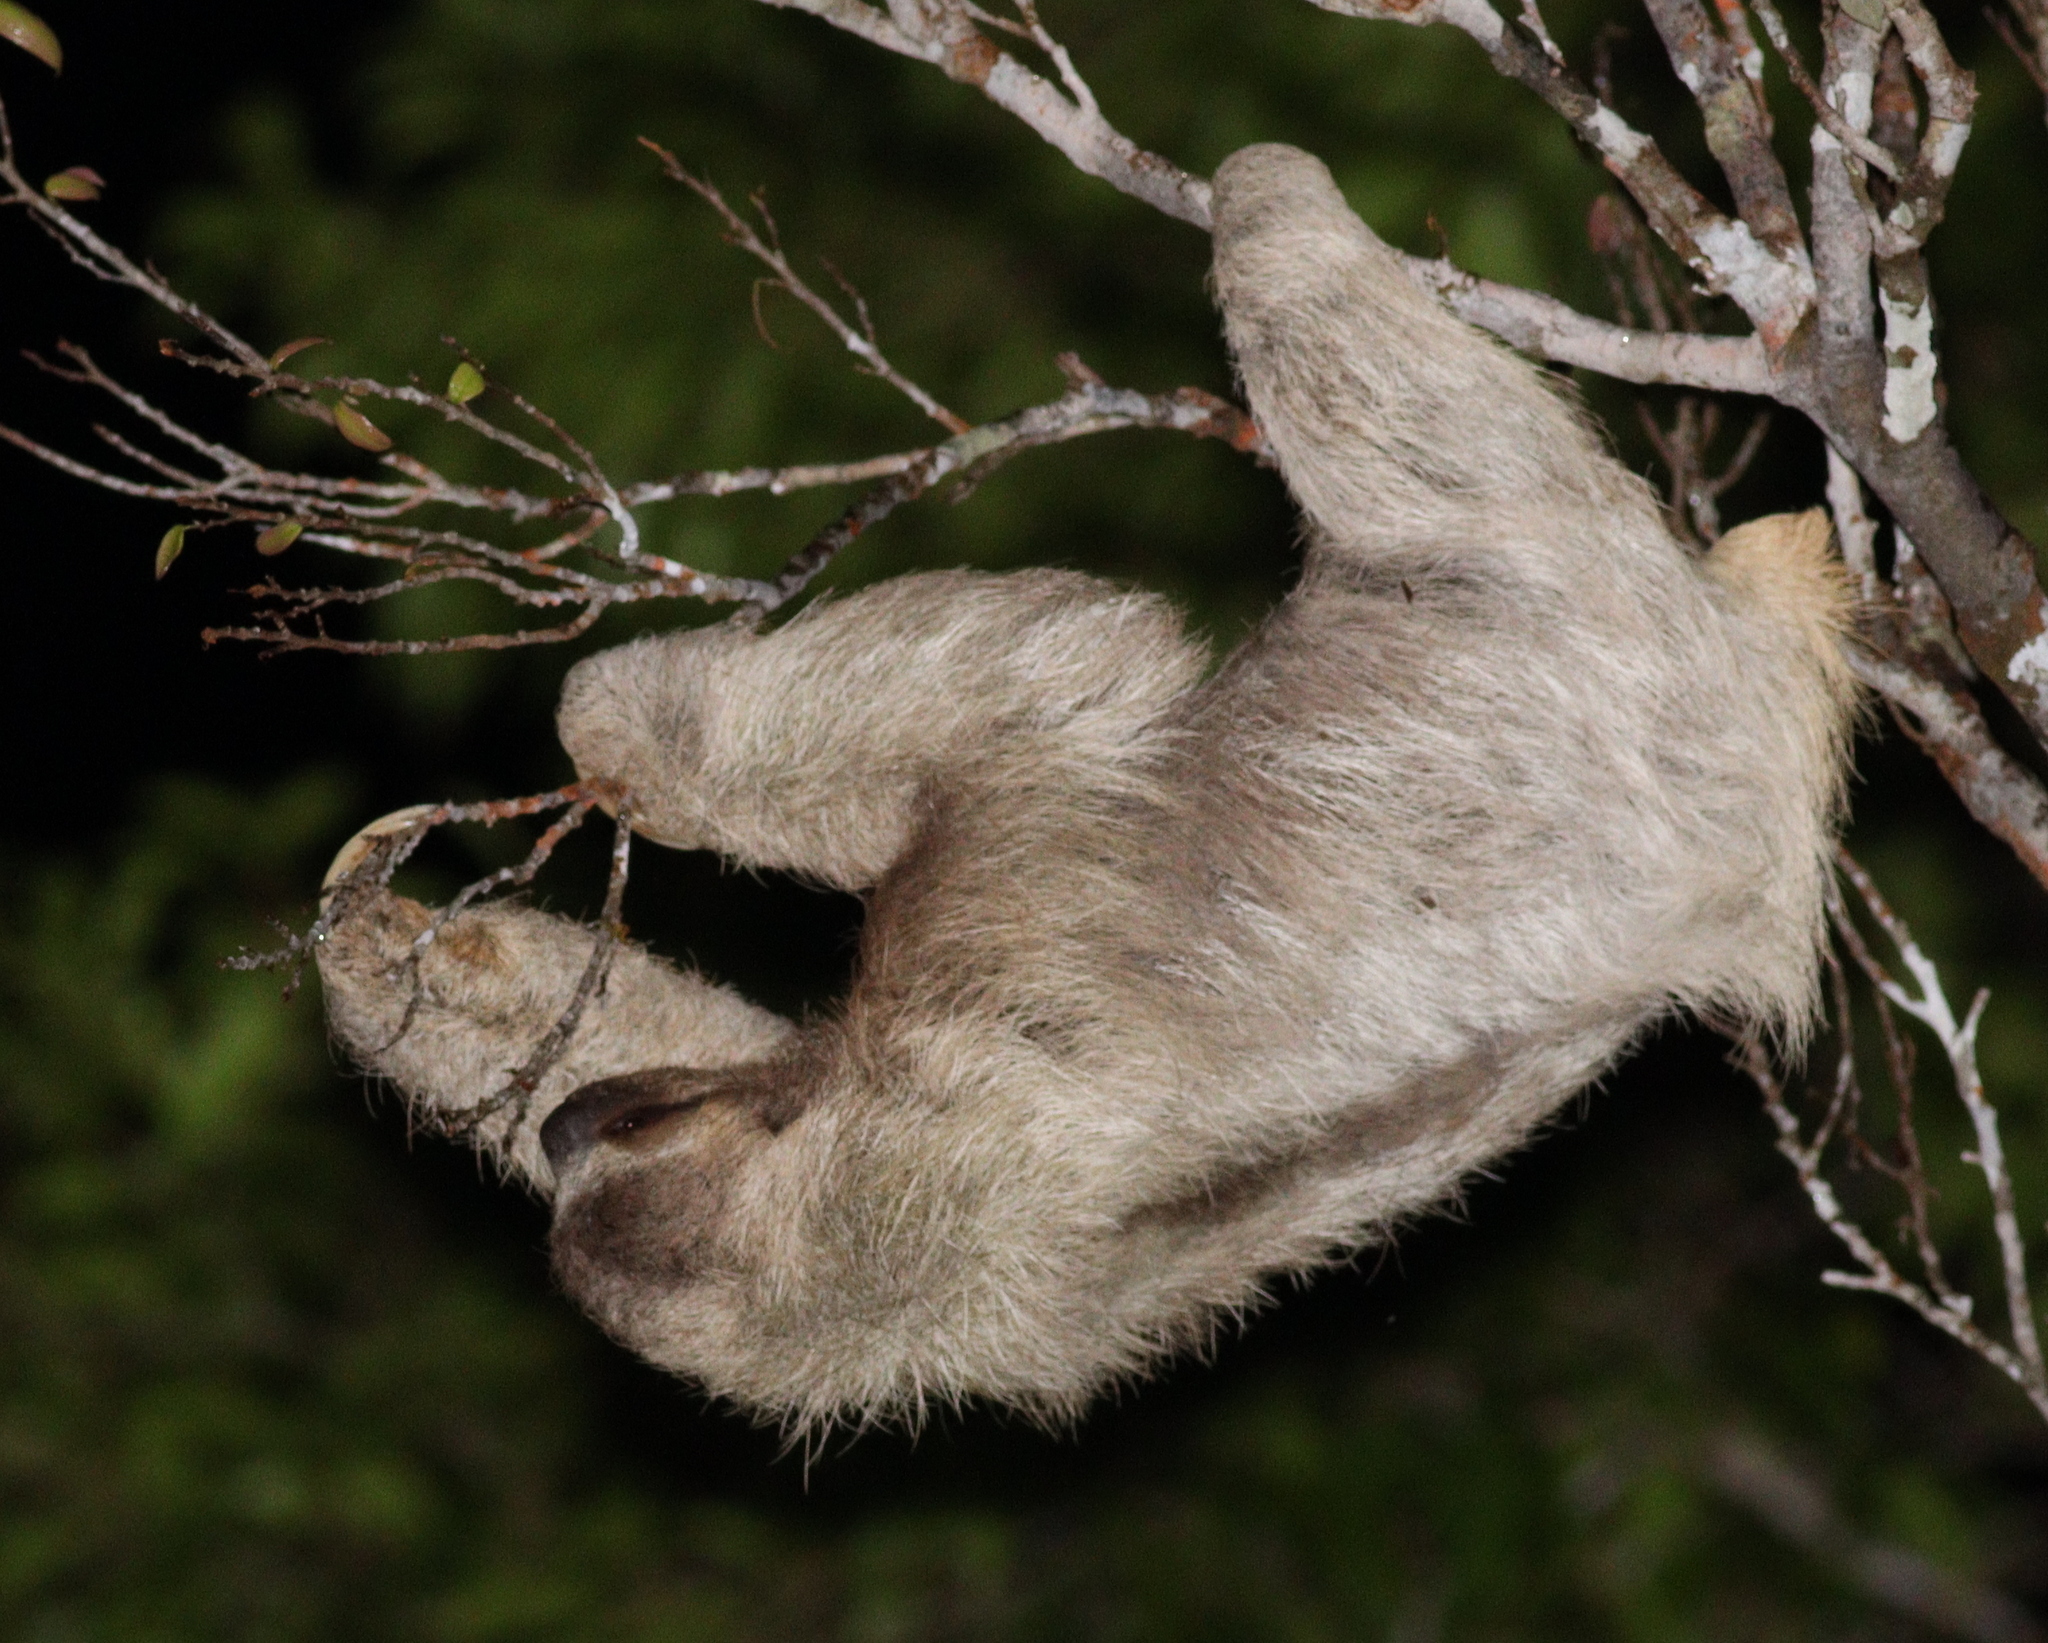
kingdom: Animalia
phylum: Chordata
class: Mammalia
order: Pilosa
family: Bradypodidae
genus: Bradypus
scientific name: Bradypus variegatus
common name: Brown-throated three-toed sloth
